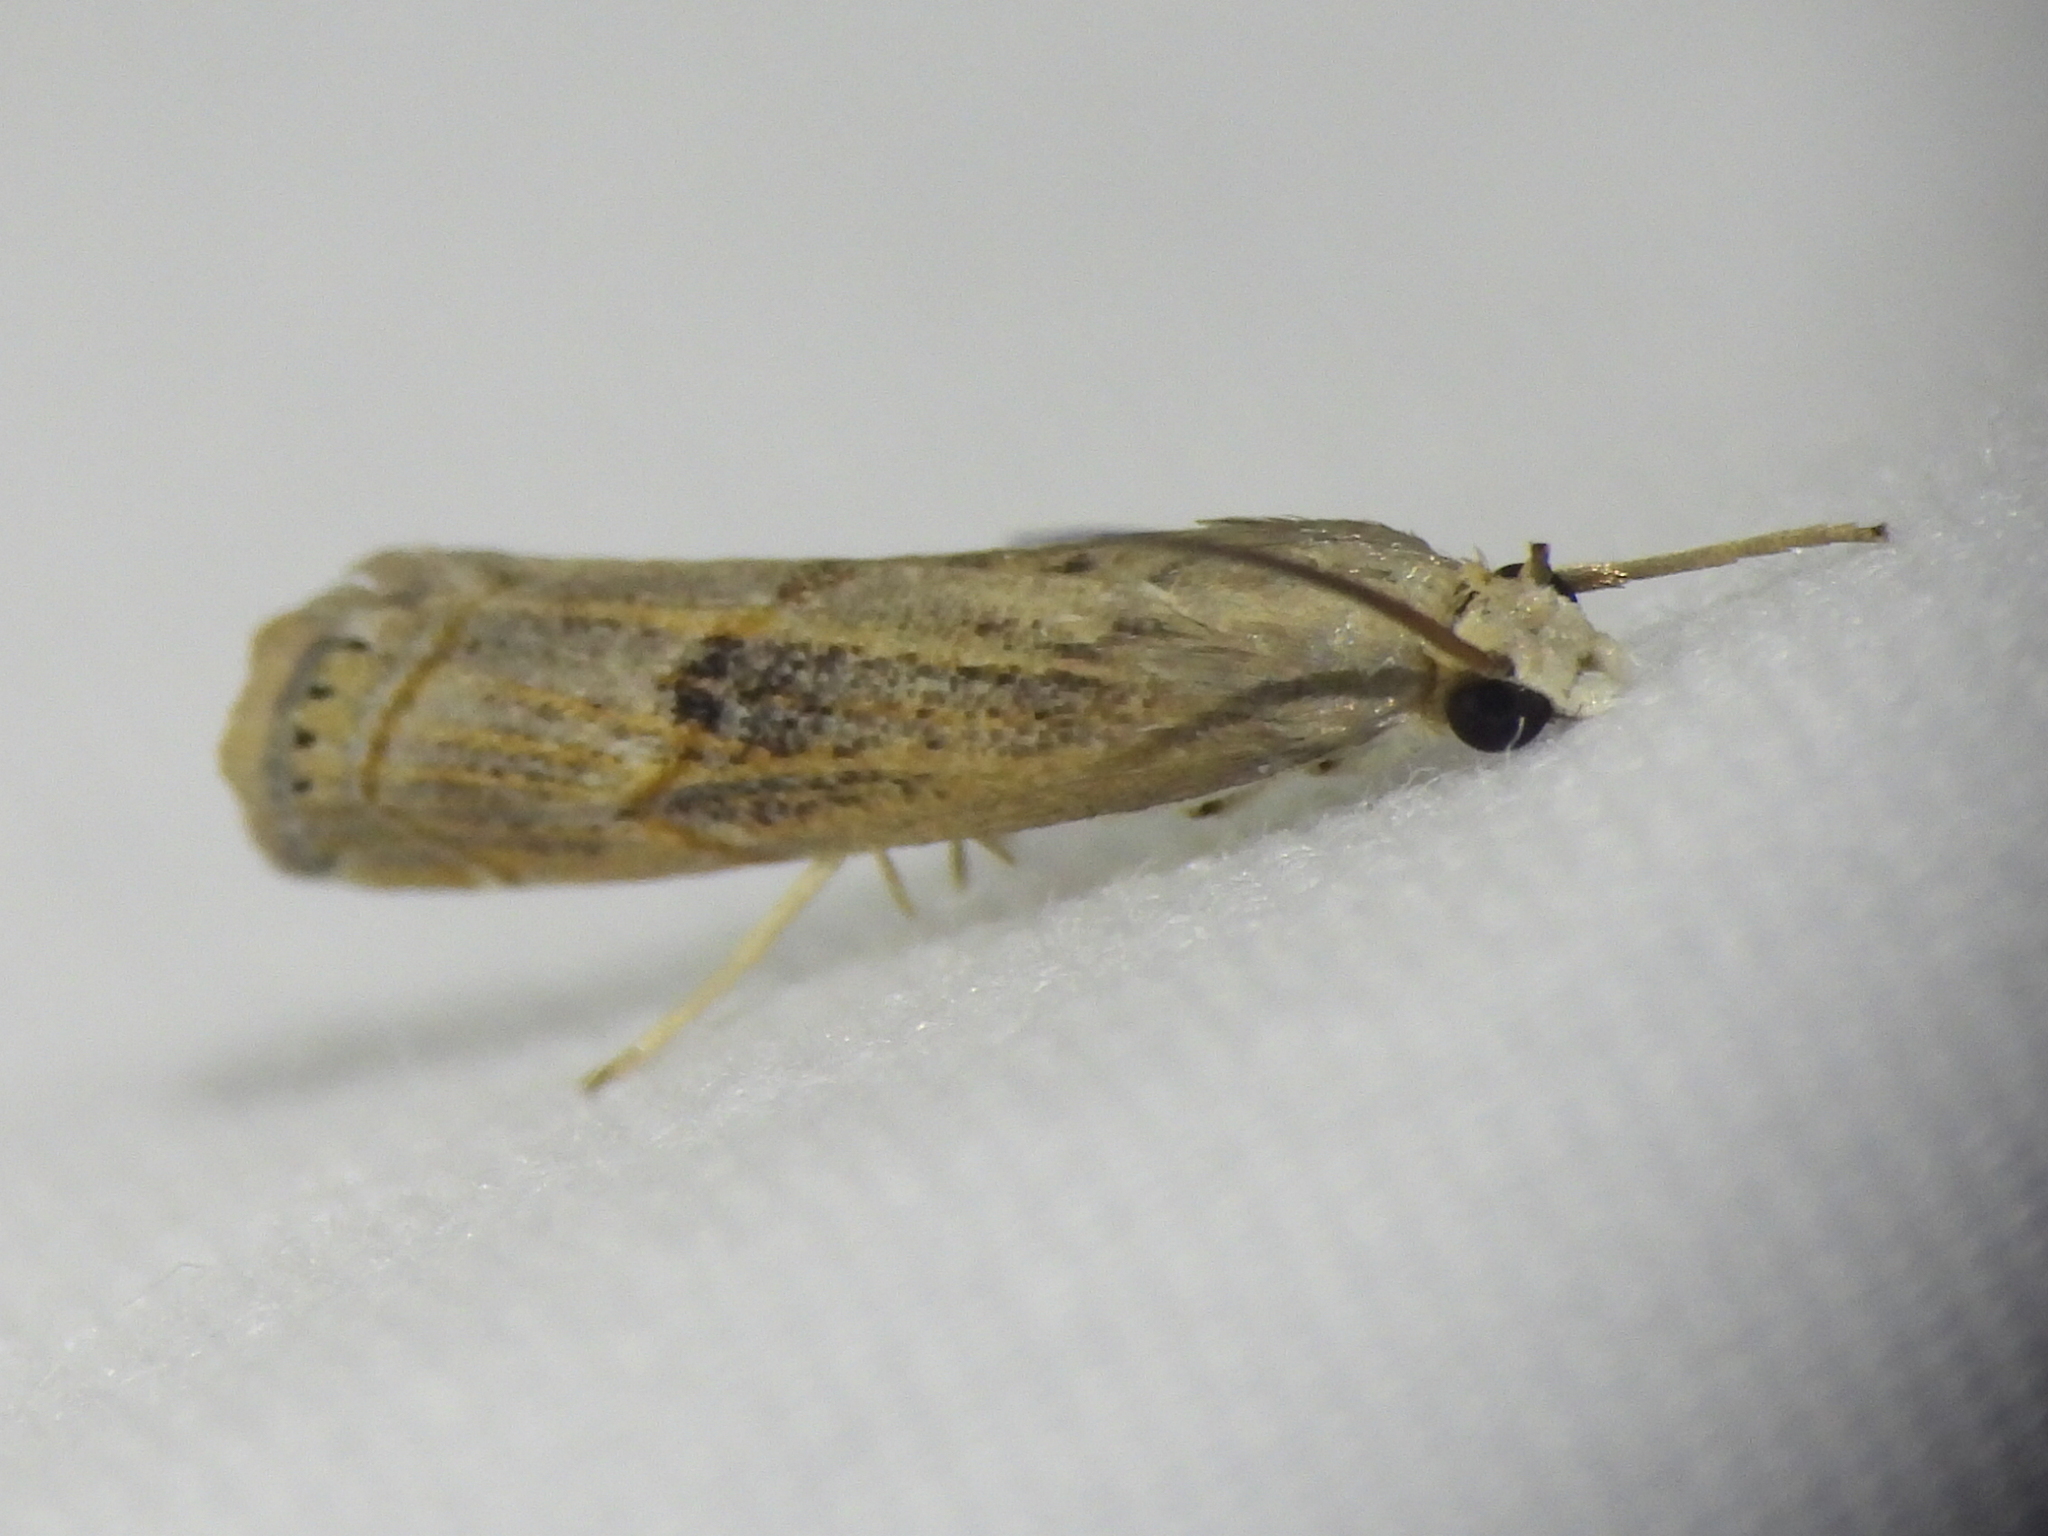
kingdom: Animalia
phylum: Arthropoda
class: Insecta
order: Lepidoptera
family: Crambidae
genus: Parapediasia
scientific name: Parapediasia teterellus
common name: Bluegrass webworm moth
